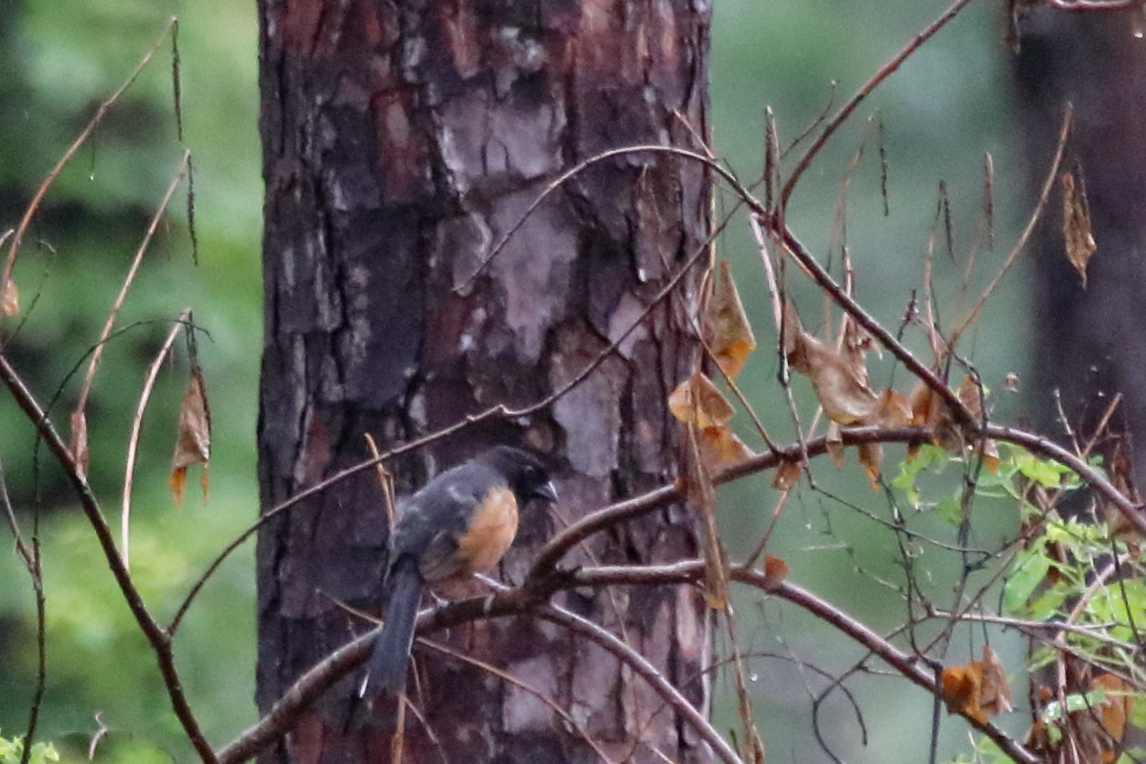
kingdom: Animalia
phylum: Chordata
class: Aves
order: Passeriformes
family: Passerellidae
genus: Pipilo
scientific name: Pipilo erythrophthalmus
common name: Eastern towhee
